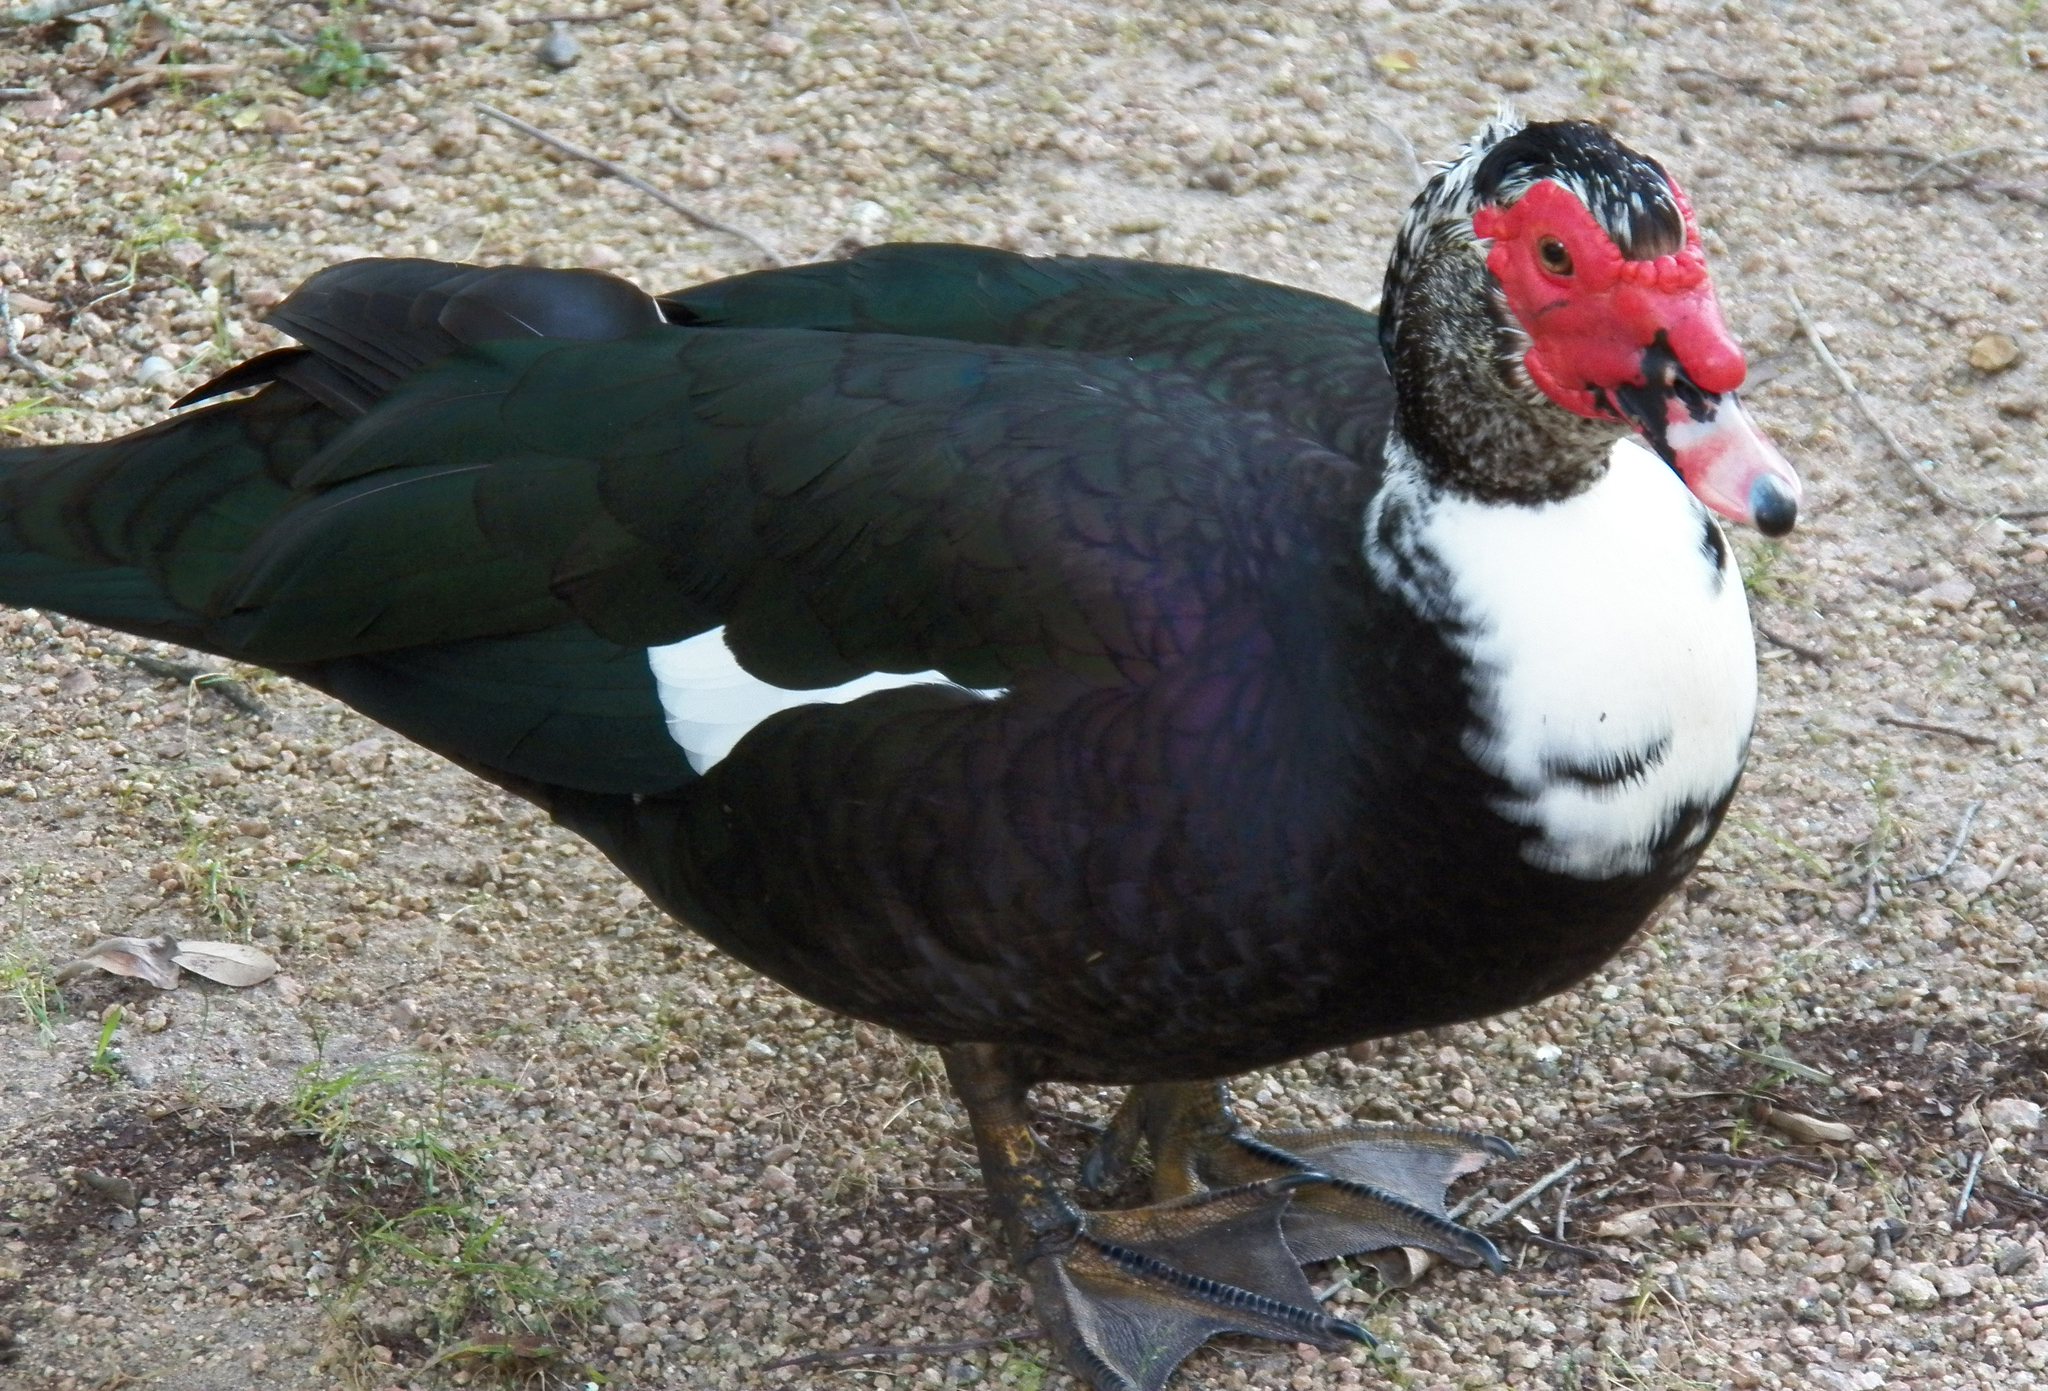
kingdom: Animalia
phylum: Chordata
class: Aves
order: Anseriformes
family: Anatidae
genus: Cairina
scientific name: Cairina moschata
